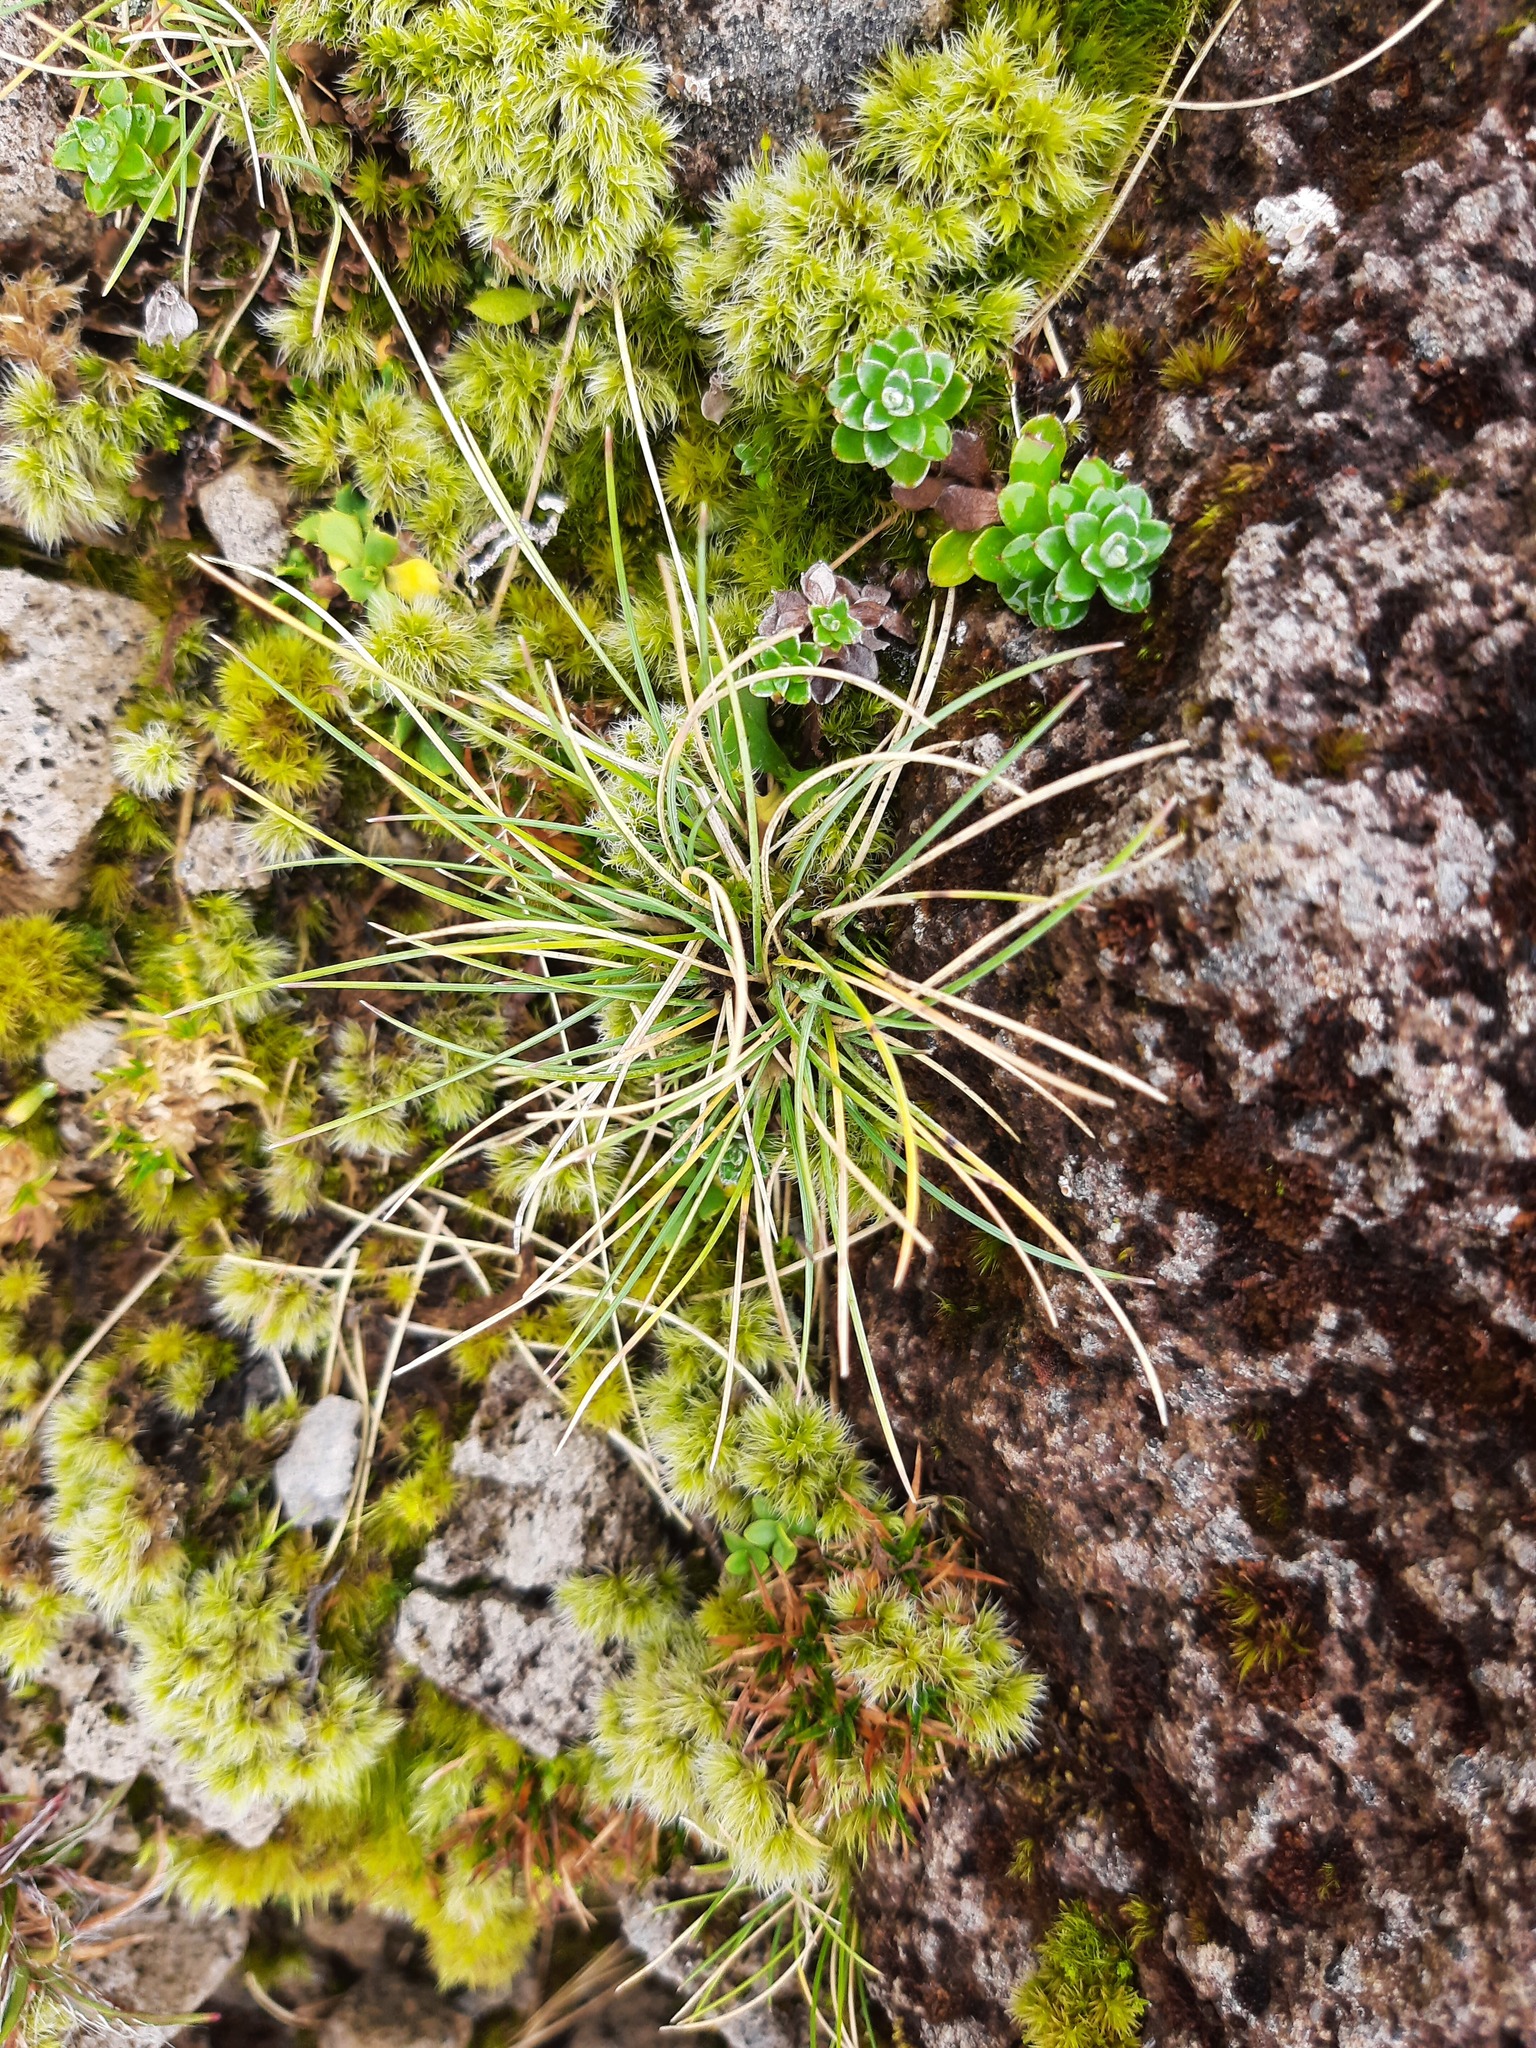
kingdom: Plantae
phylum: Tracheophyta
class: Liliopsida
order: Poales
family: Poaceae
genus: Poa
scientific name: Poa colensoi
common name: Blue tussock
